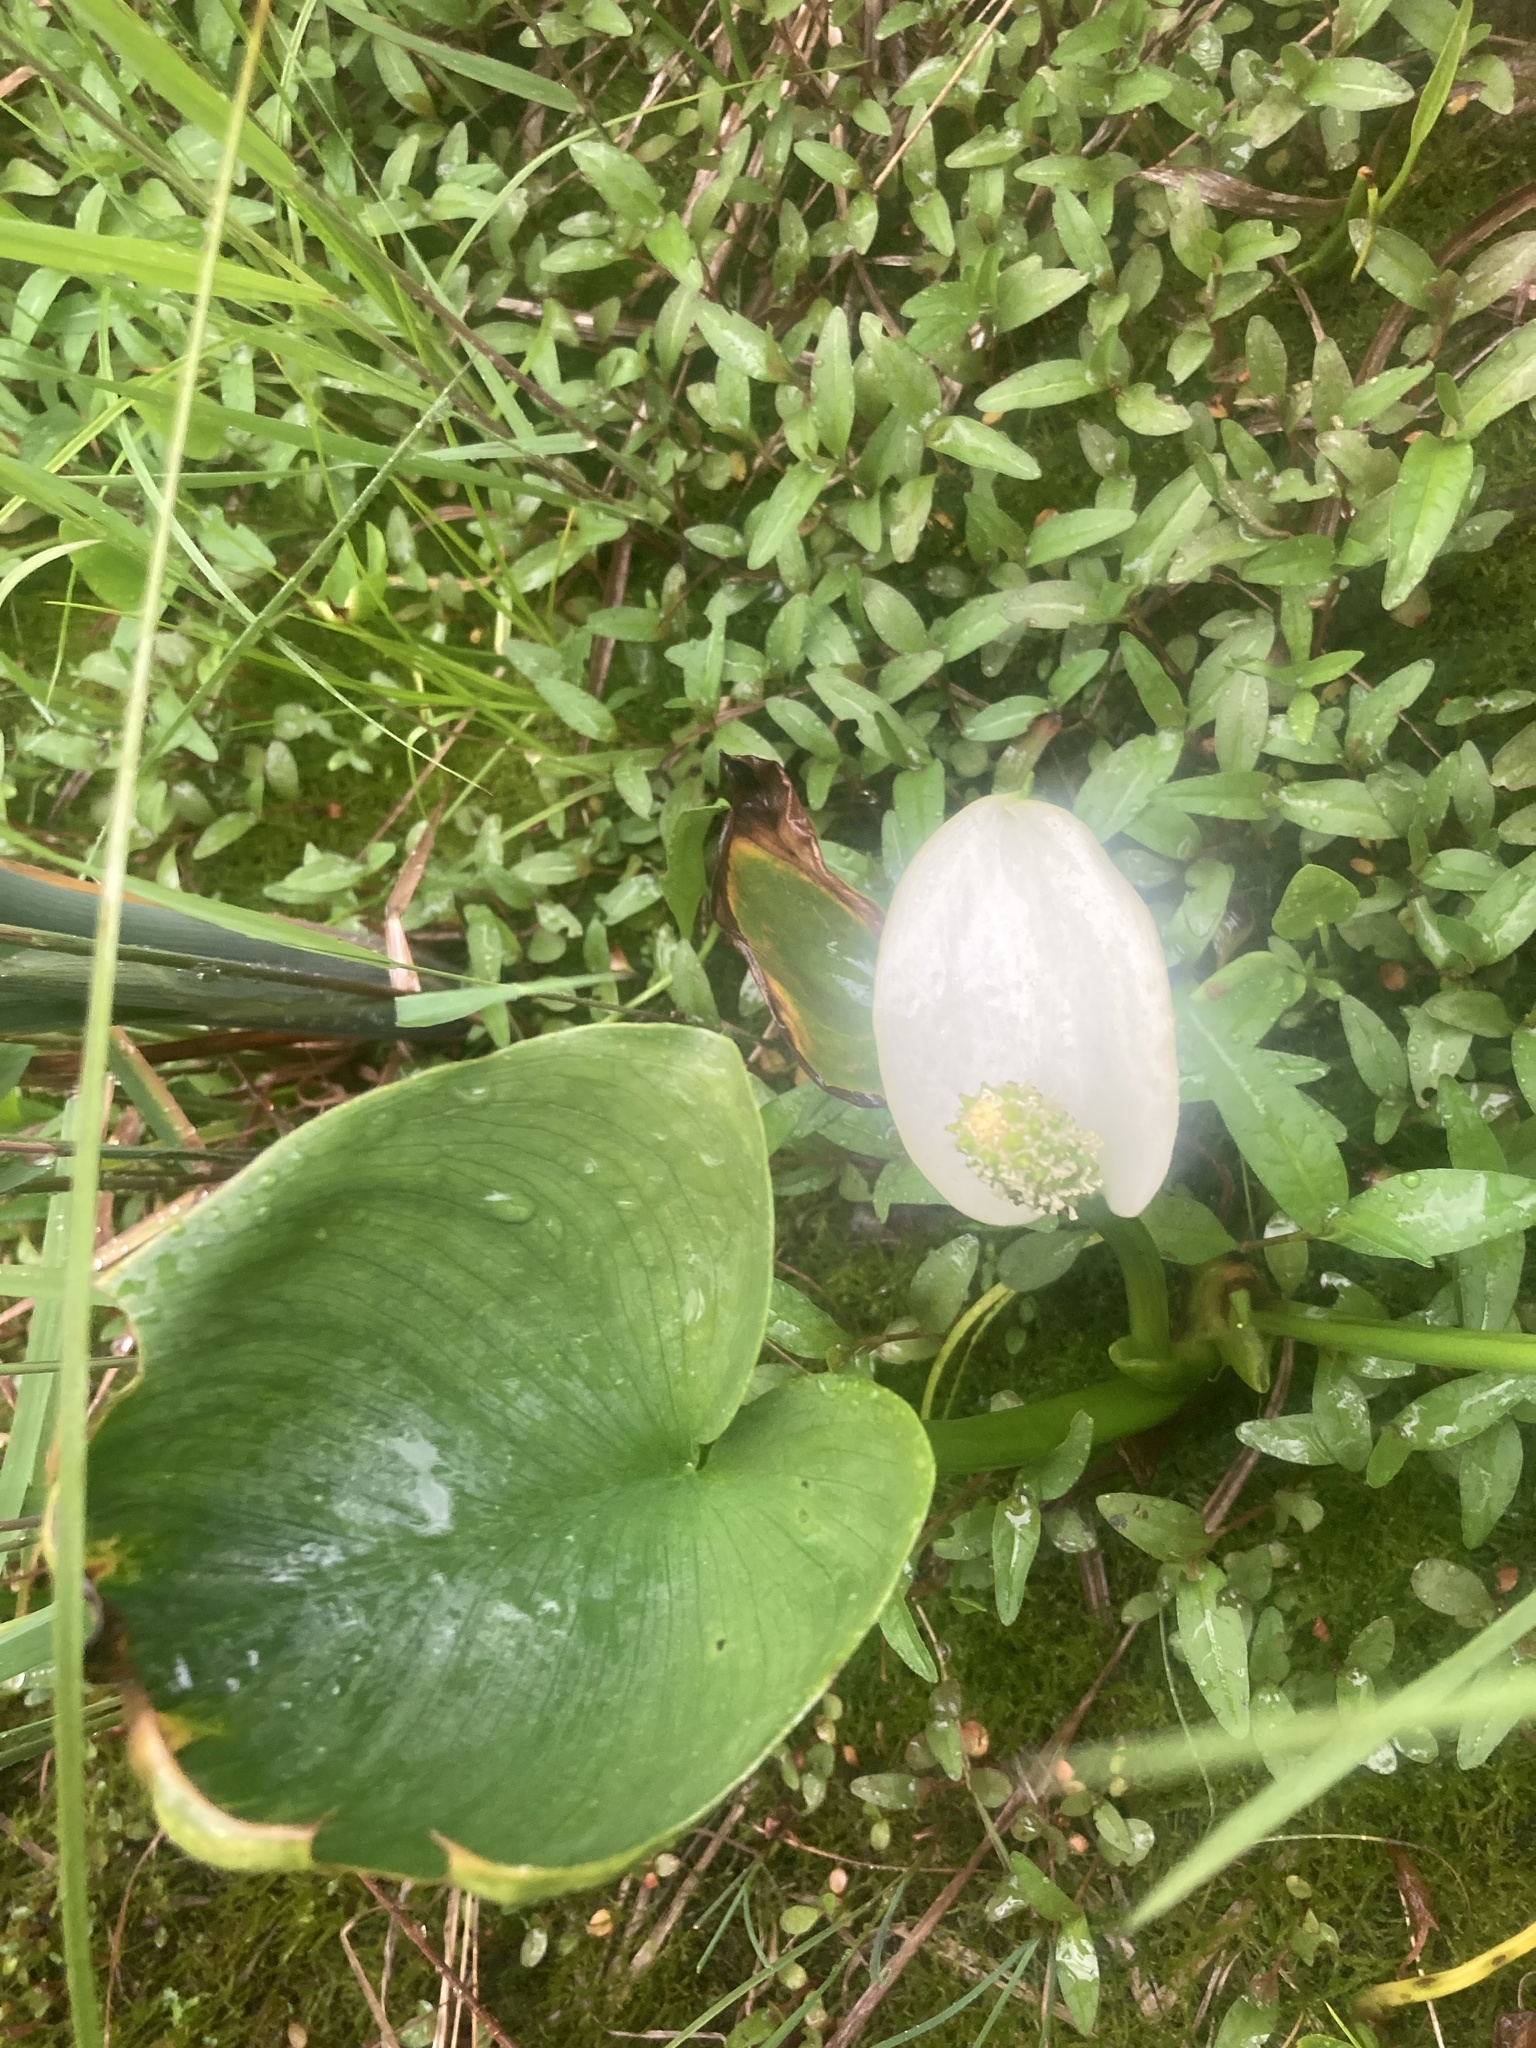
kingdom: Plantae
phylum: Tracheophyta
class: Liliopsida
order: Alismatales
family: Araceae
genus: Calla
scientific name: Calla palustris
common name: Bog arum
